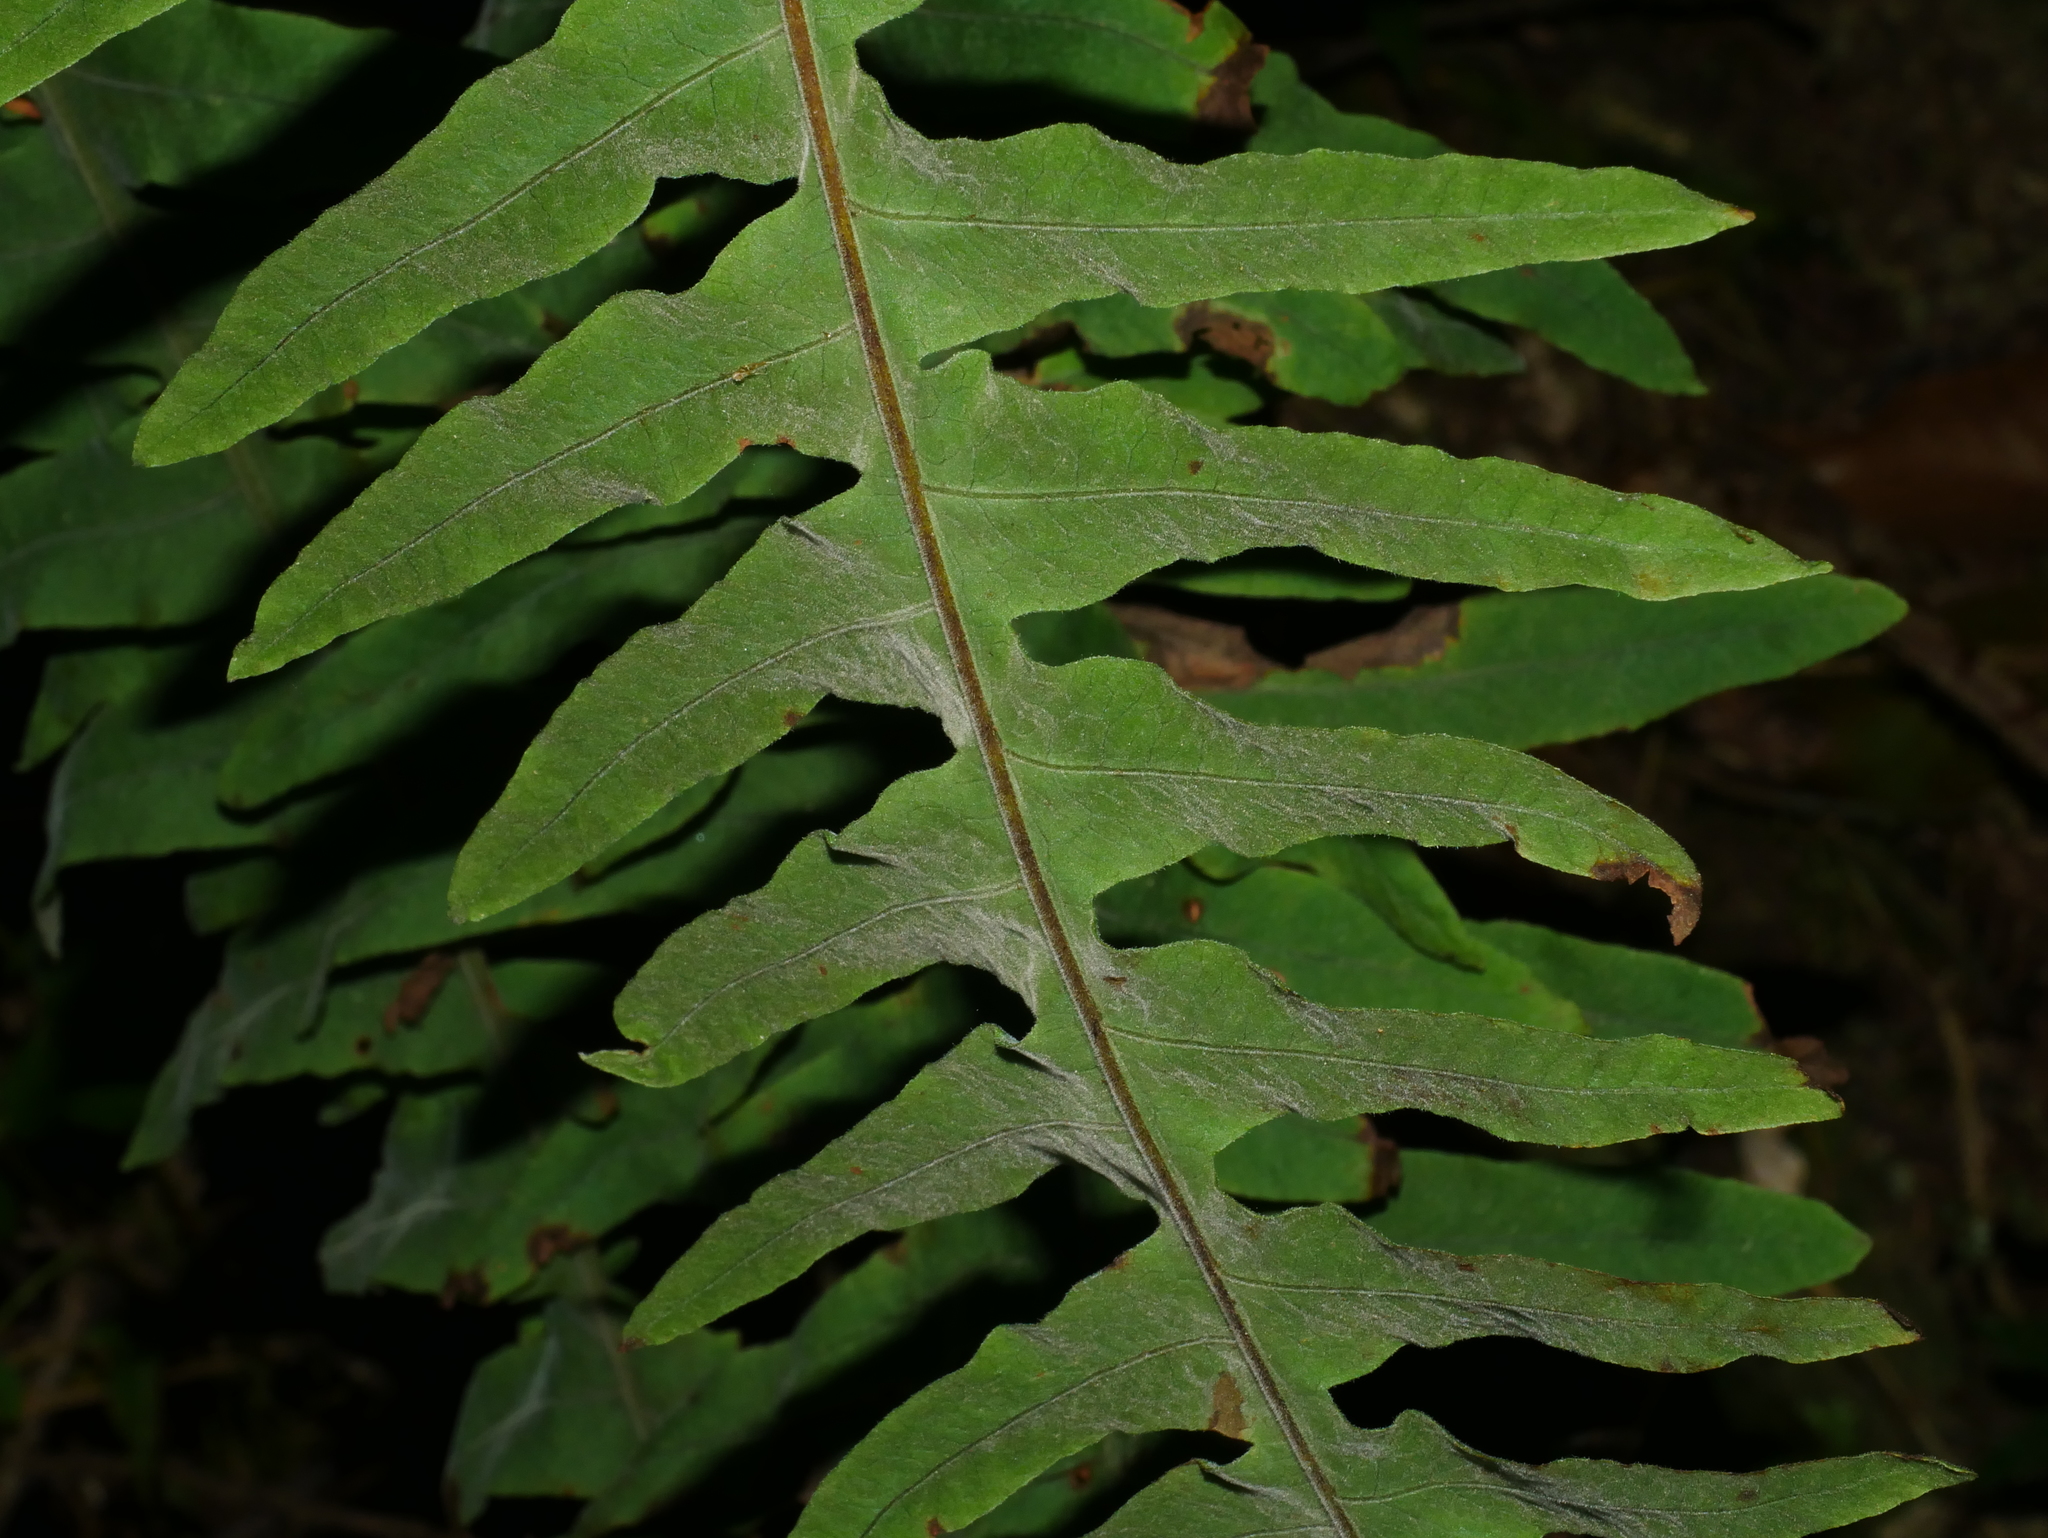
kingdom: Plantae
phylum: Tracheophyta
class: Polypodiopsida
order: Polypodiales
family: Polypodiaceae
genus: Goniophlebium
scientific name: Goniophlebium raishaense
